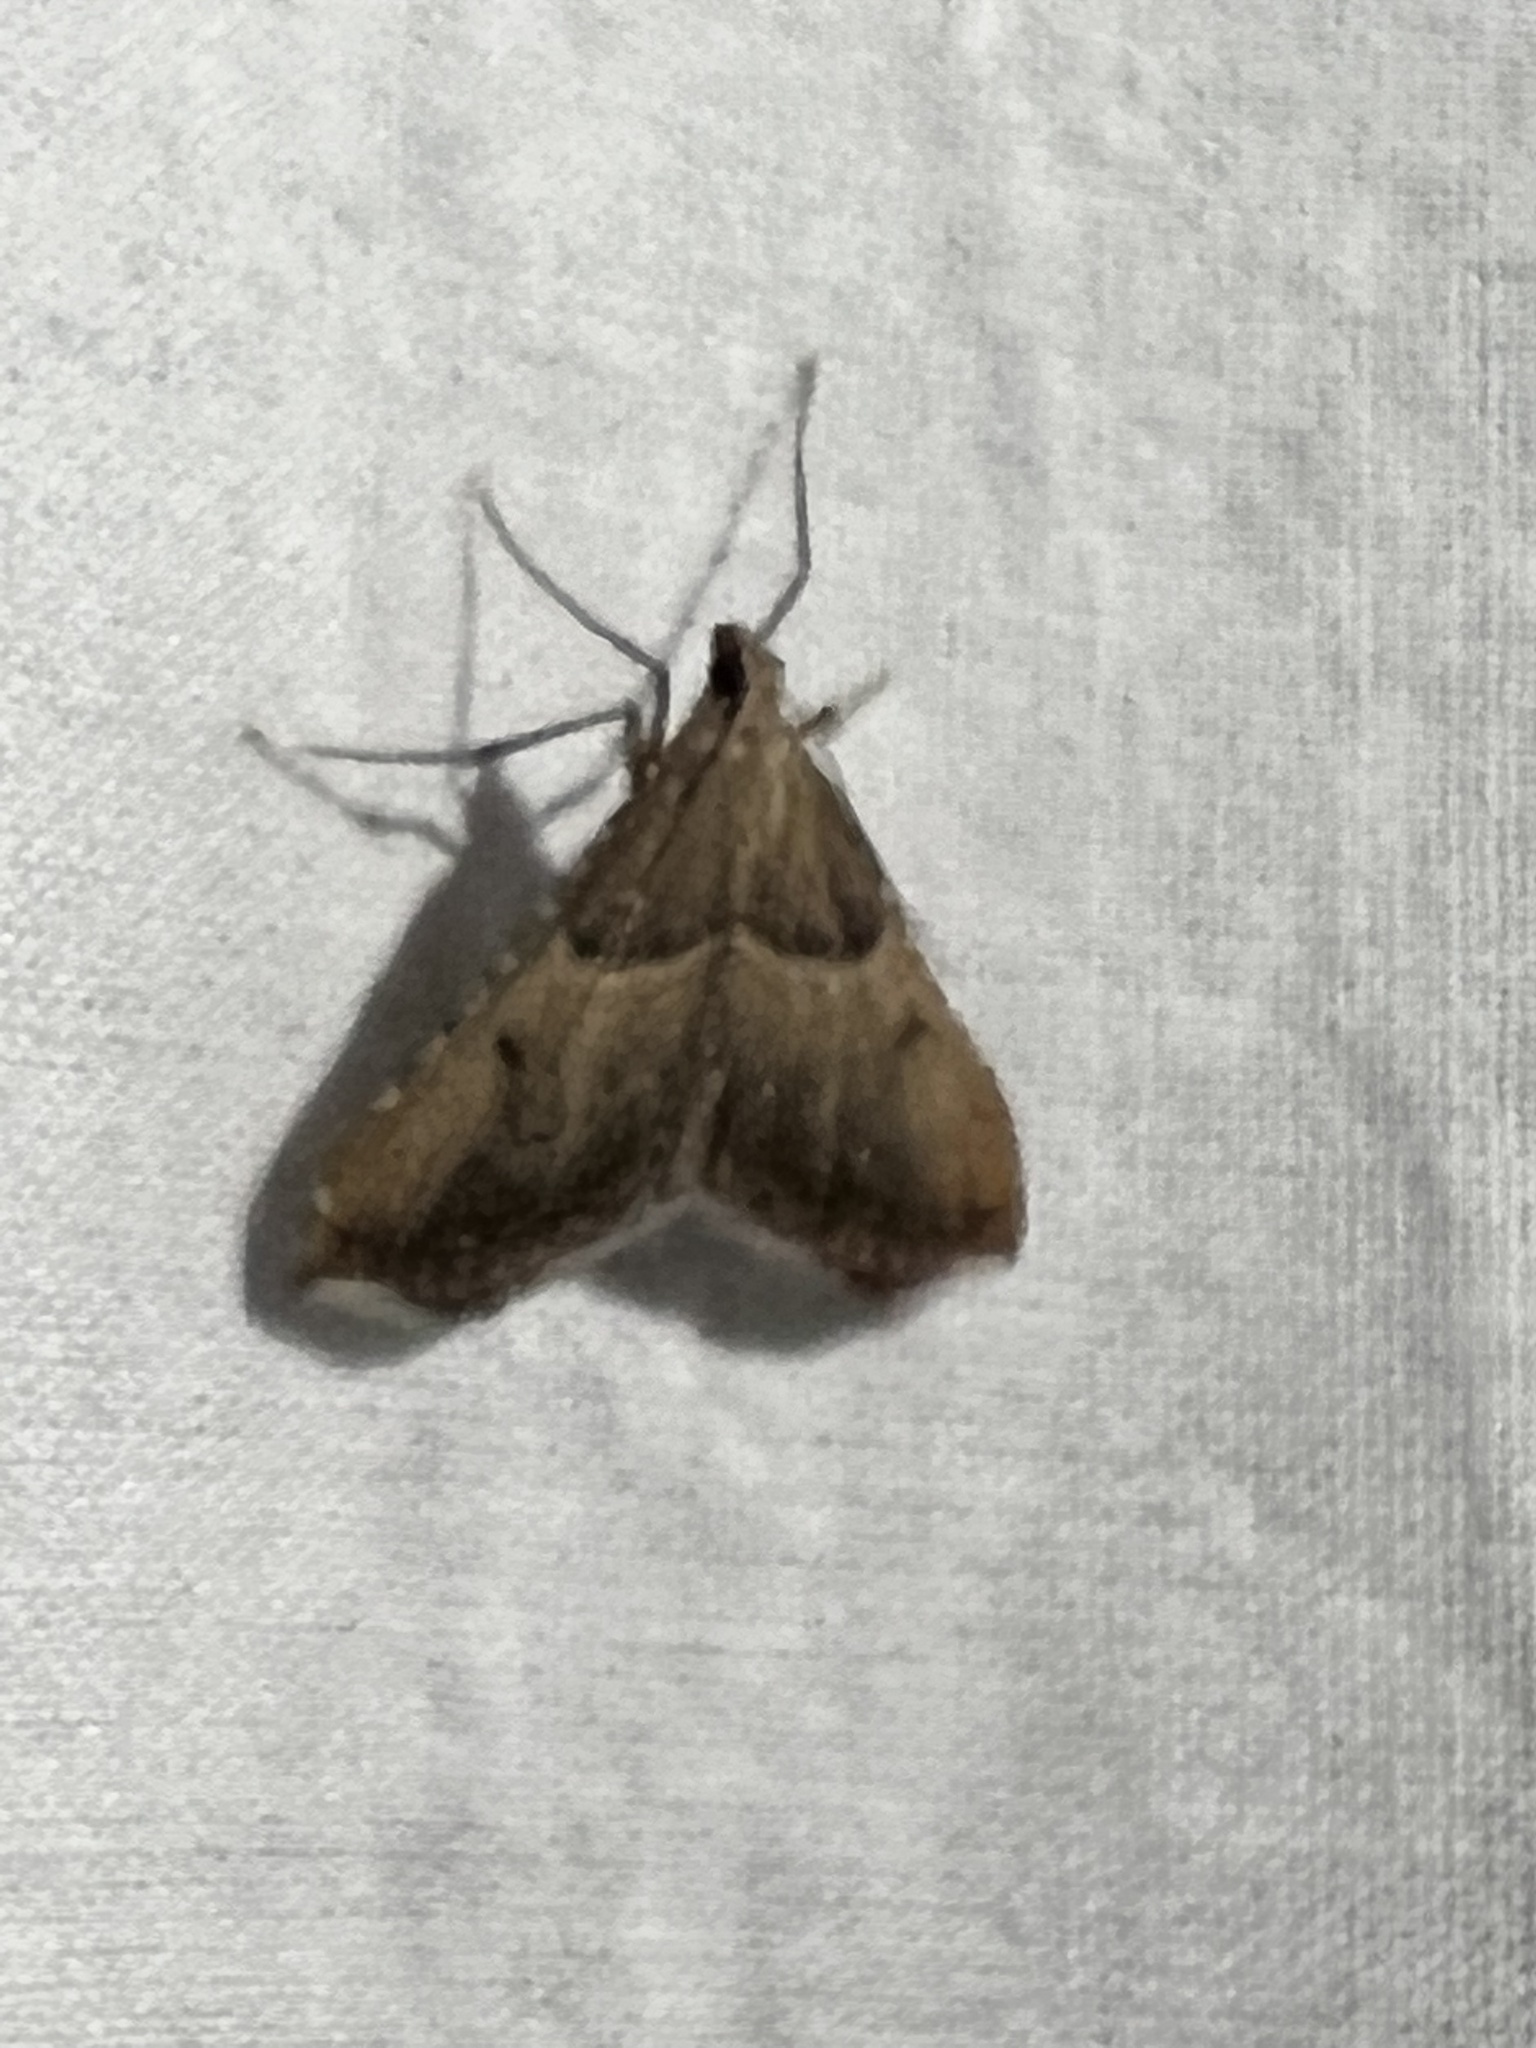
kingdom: Animalia
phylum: Arthropoda
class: Insecta
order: Lepidoptera
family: Pyralidae
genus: Endotricha
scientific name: Endotricha flammealis
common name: Rosy tabby
